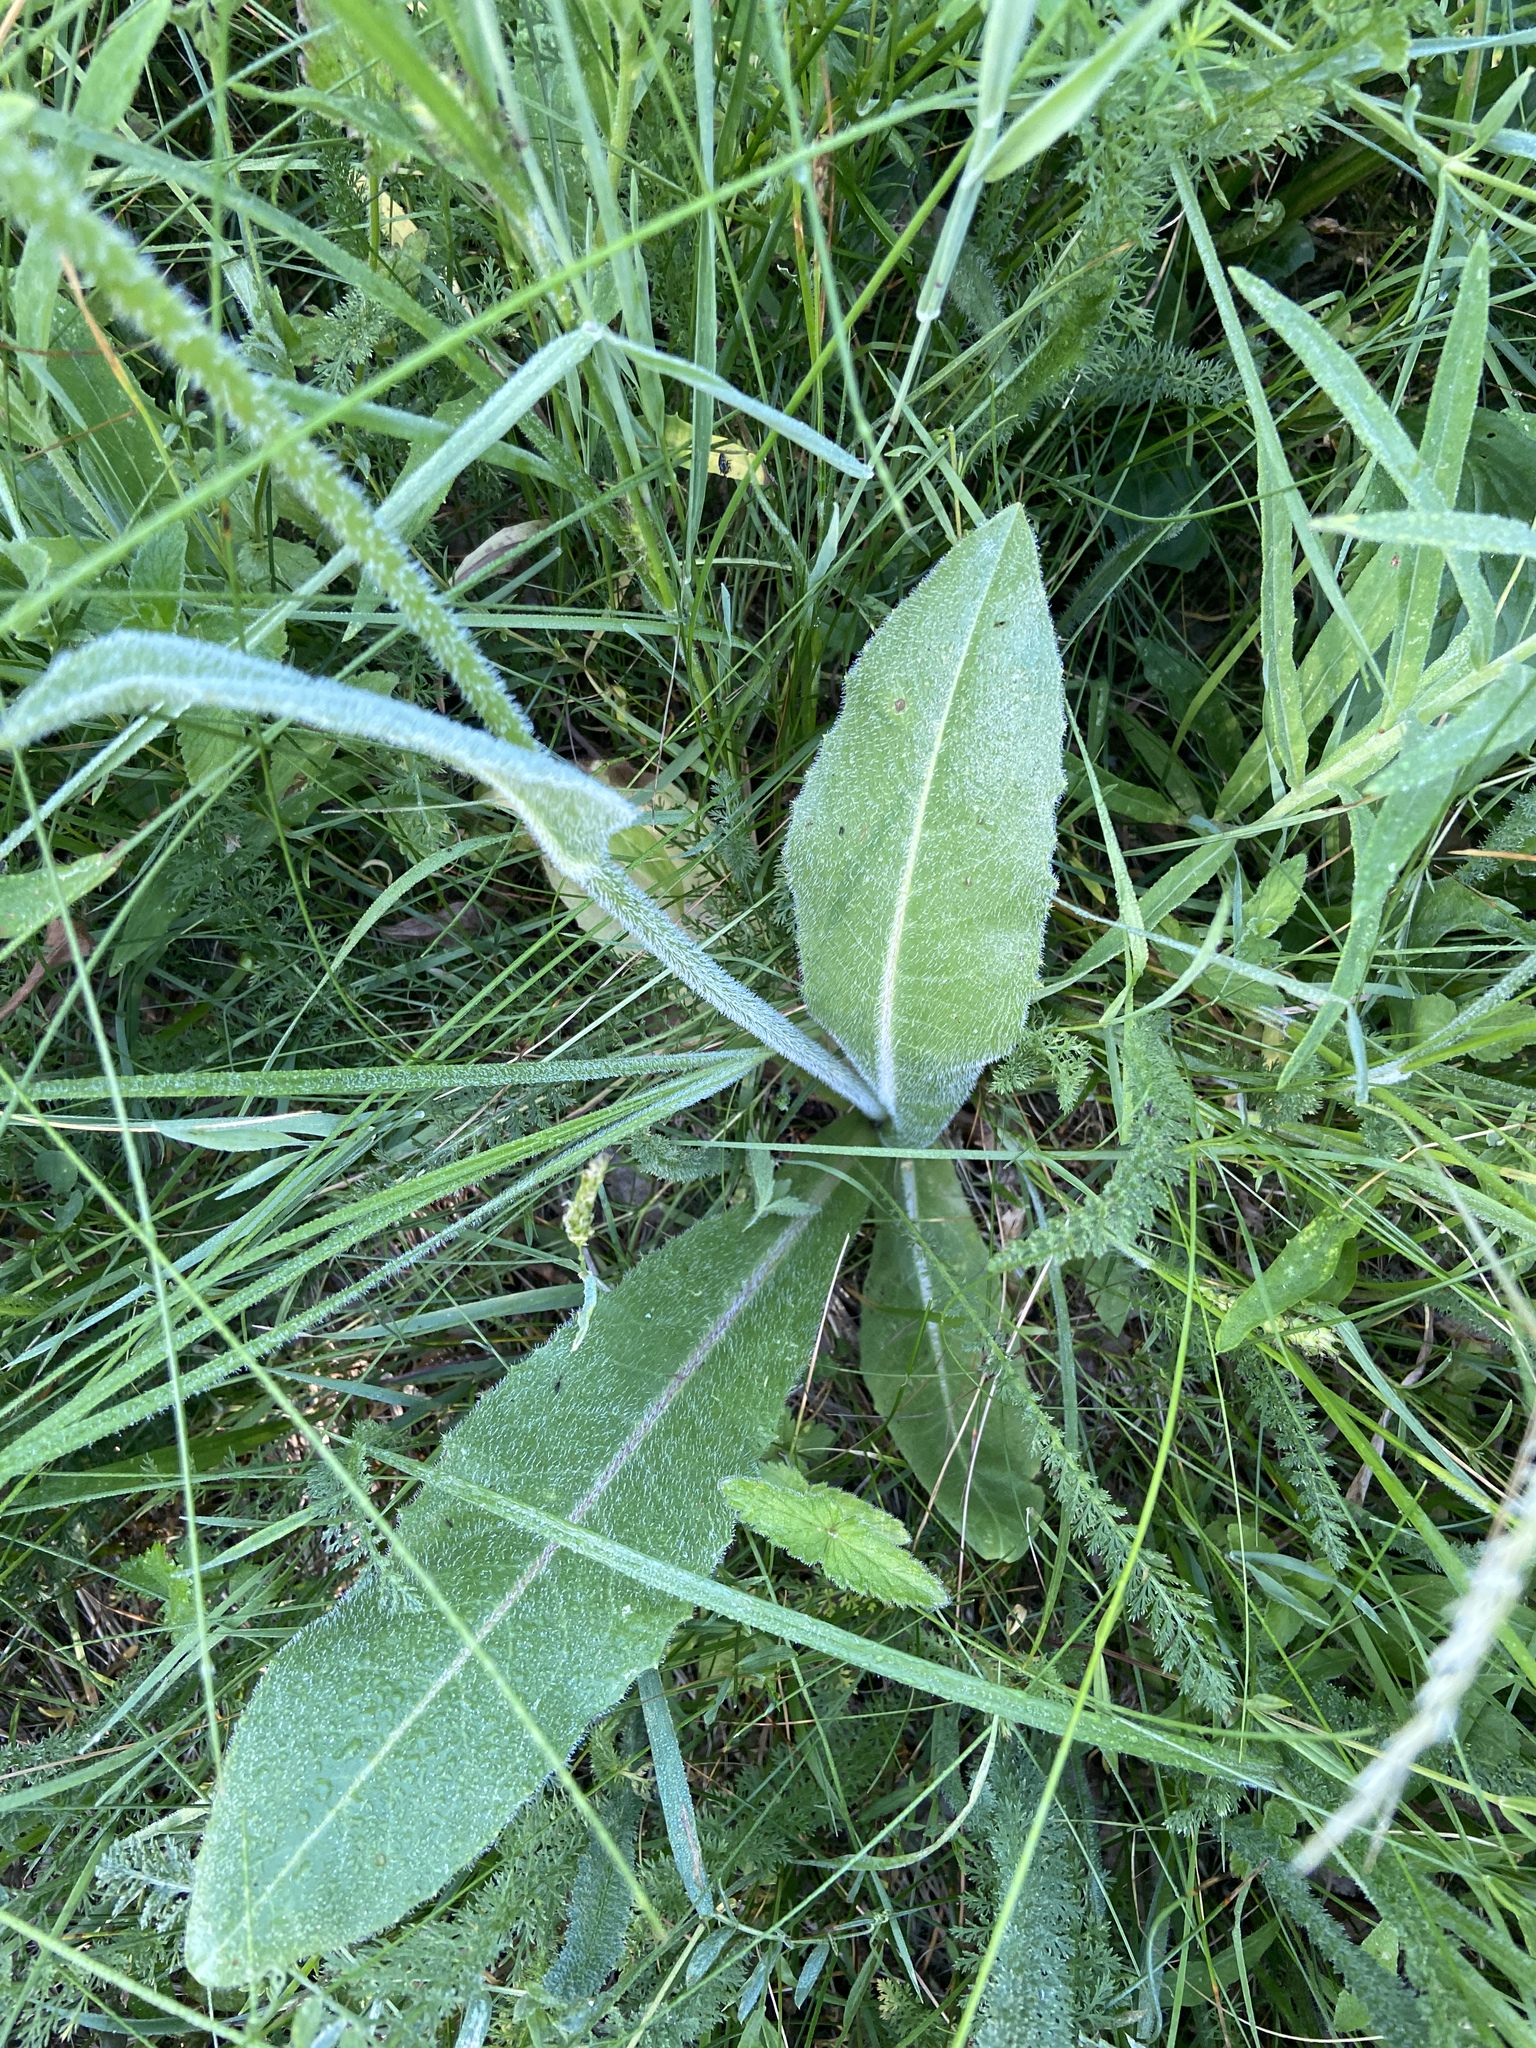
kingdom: Plantae
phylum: Tracheophyta
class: Magnoliopsida
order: Asterales
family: Asteraceae
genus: Trommsdorffia
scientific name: Trommsdorffia maculata
